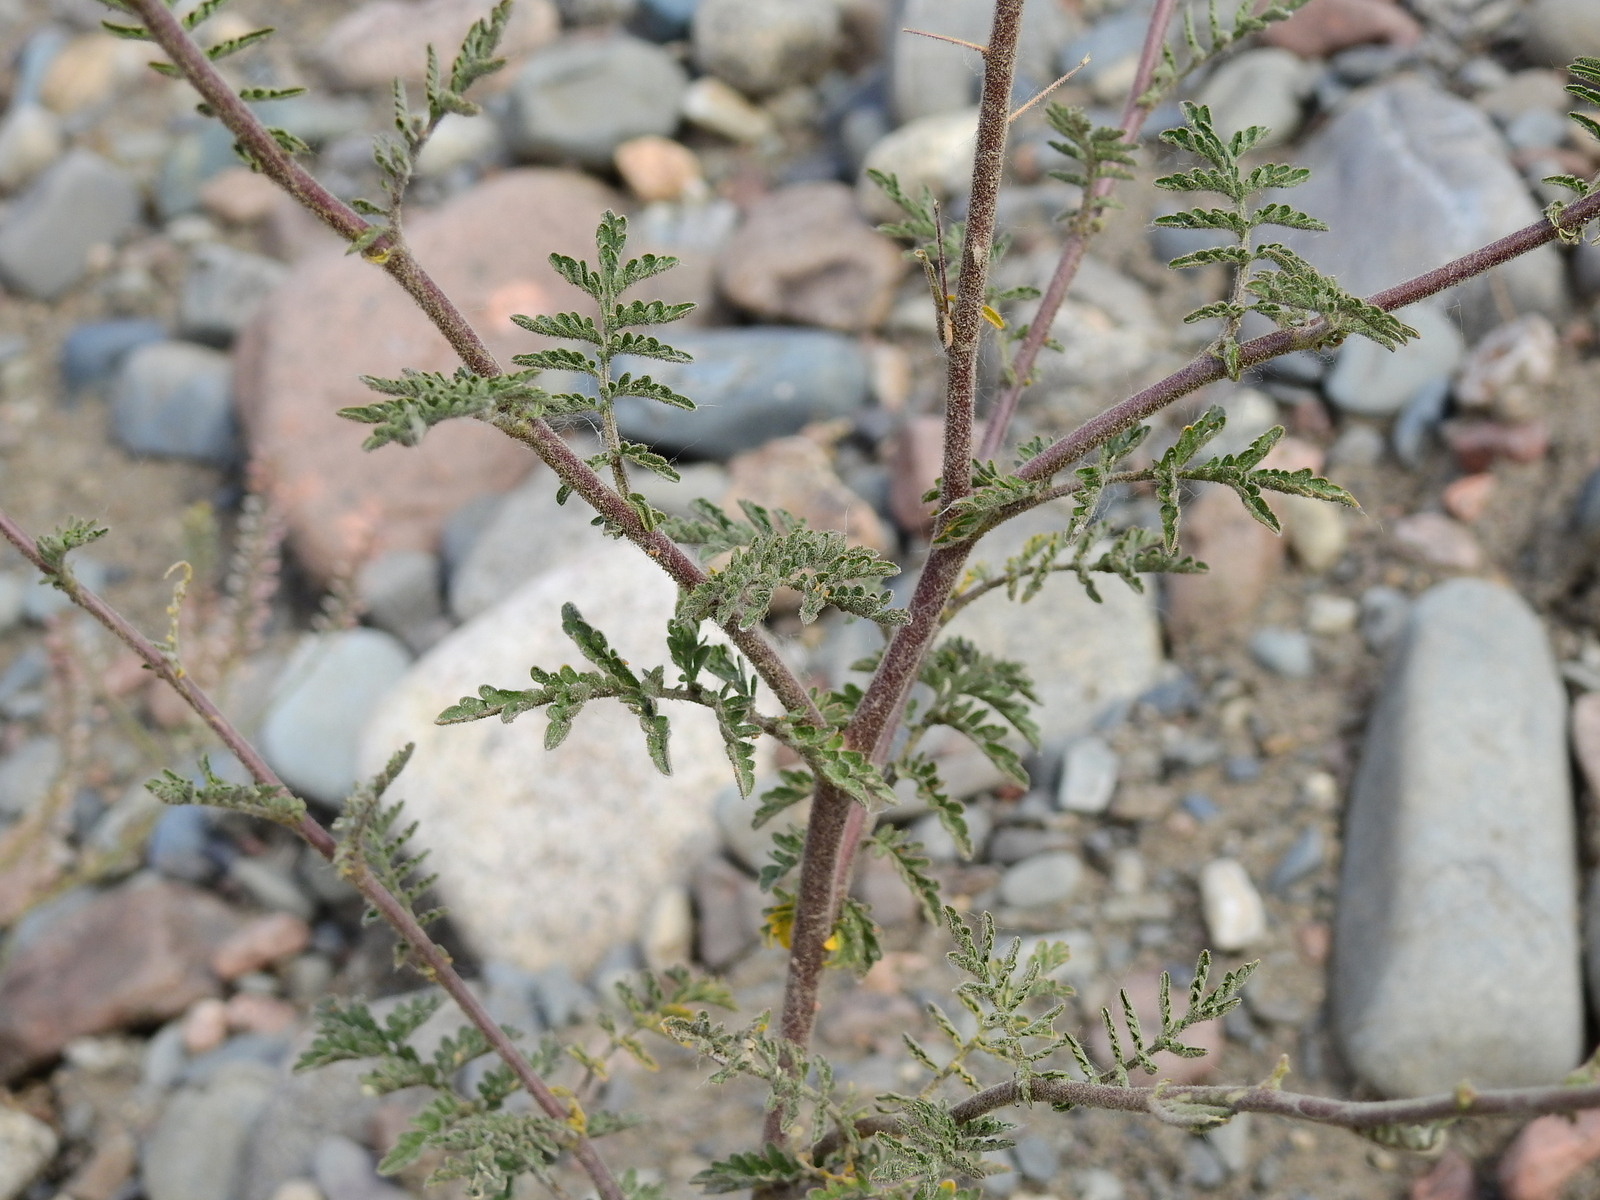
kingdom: Plantae
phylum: Tracheophyta
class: Magnoliopsida
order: Brassicales
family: Brassicaceae
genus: Descurainia
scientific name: Descurainia erodiifolia
